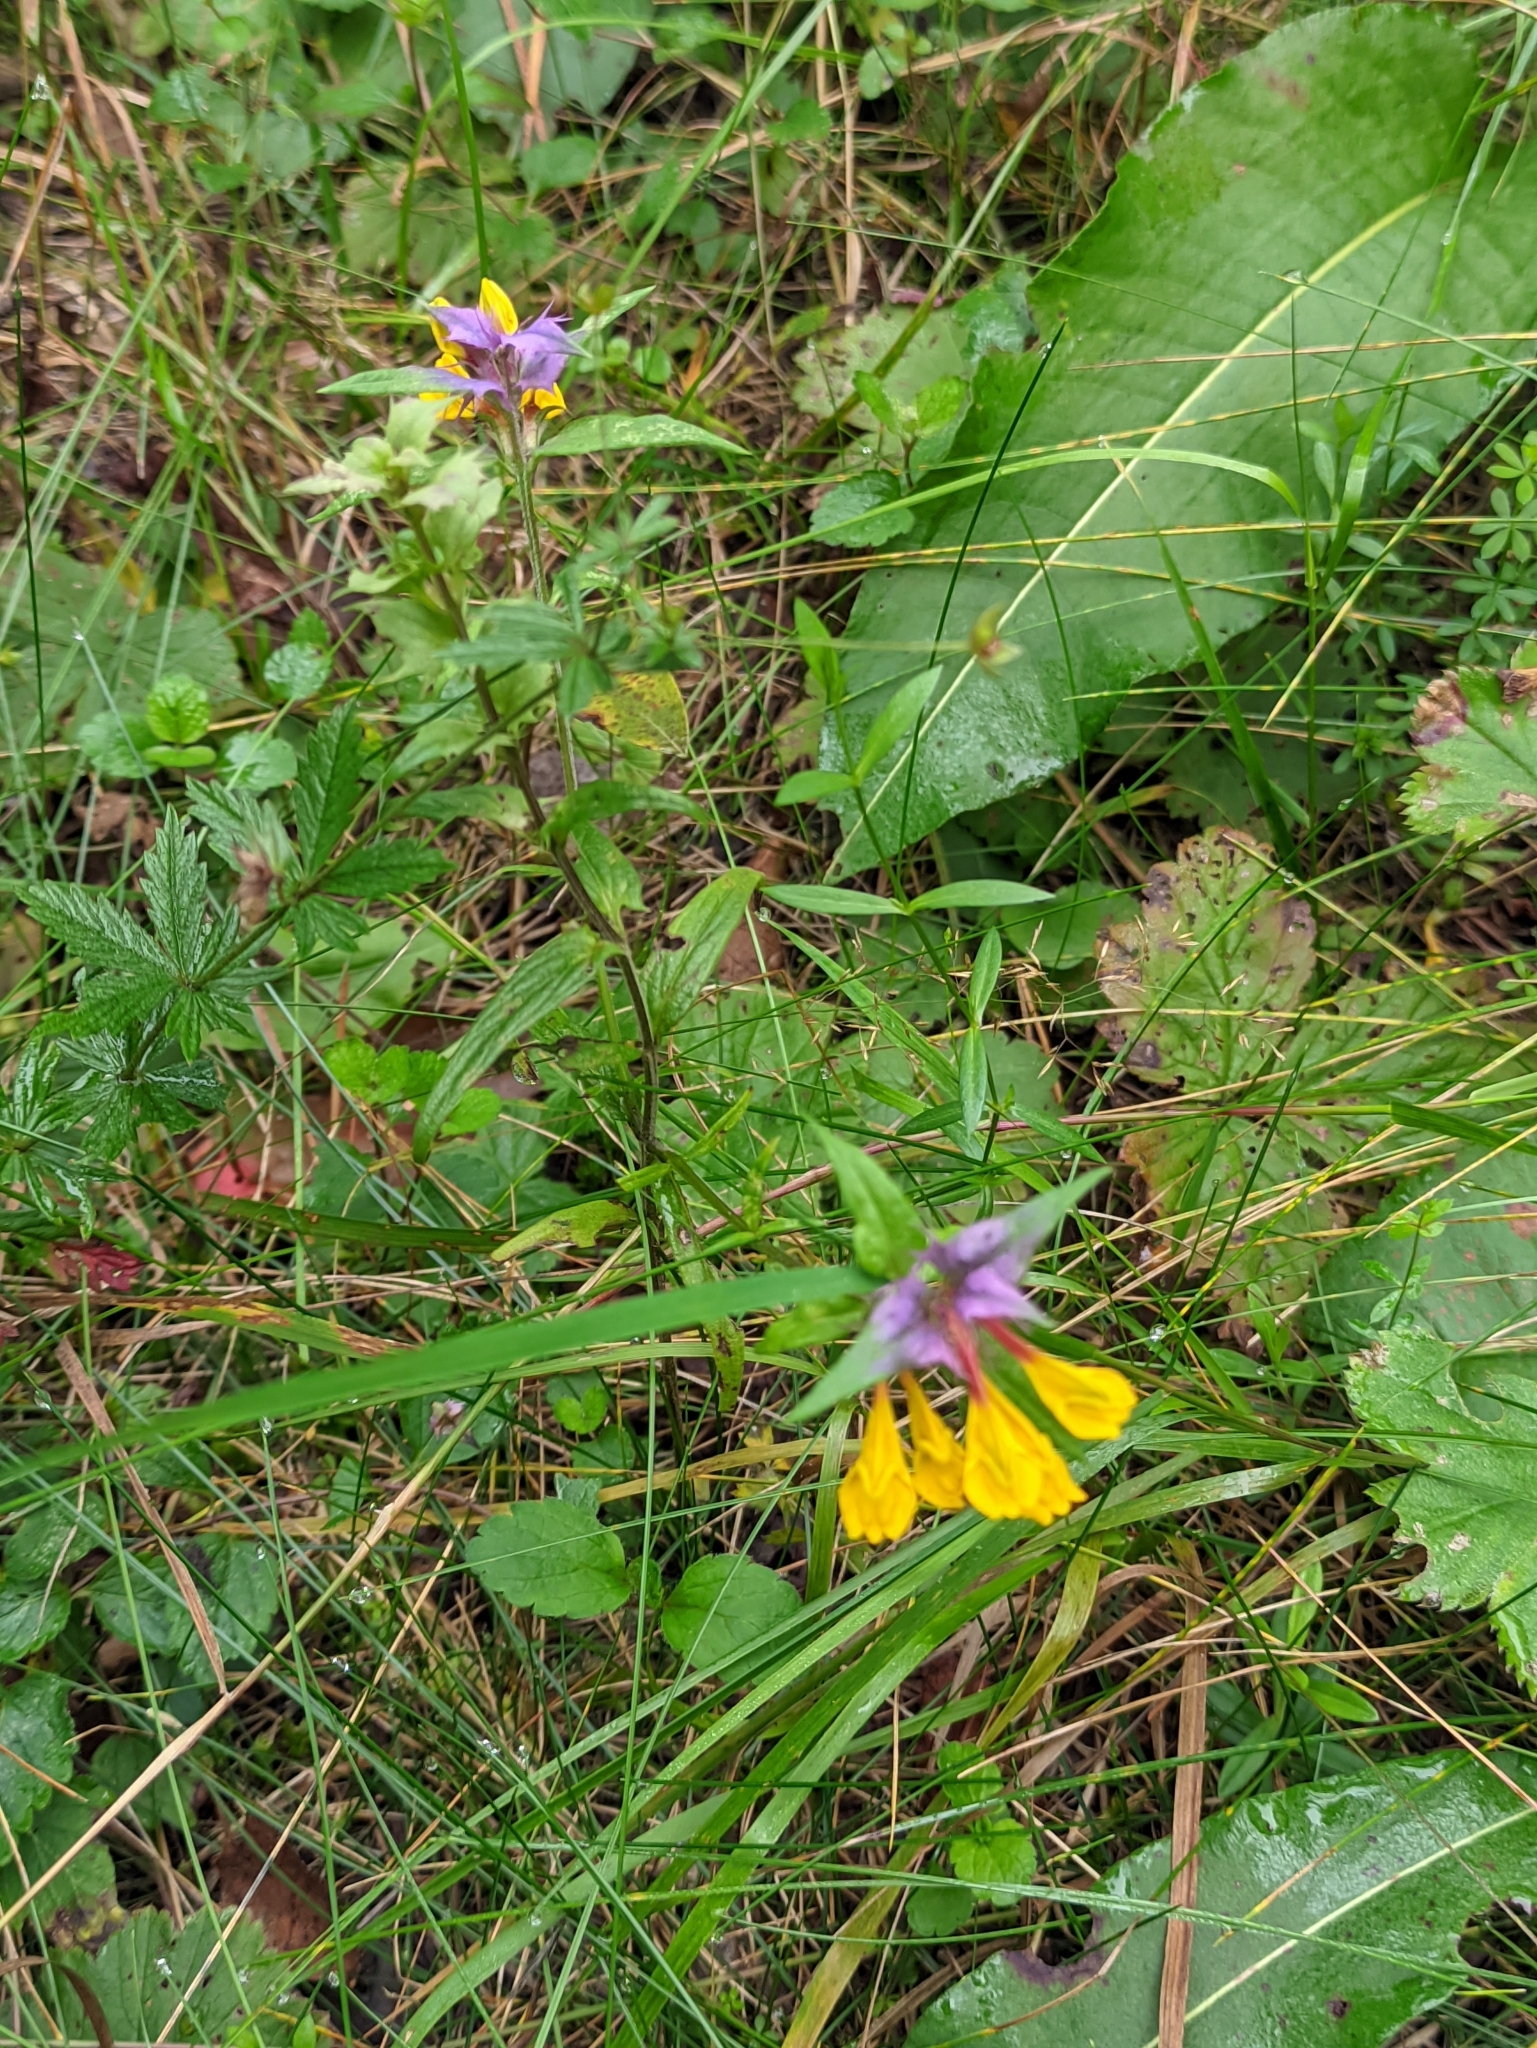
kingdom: Plantae
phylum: Tracheophyta
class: Magnoliopsida
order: Lamiales
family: Orobanchaceae
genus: Melampyrum
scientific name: Melampyrum nemorosum
